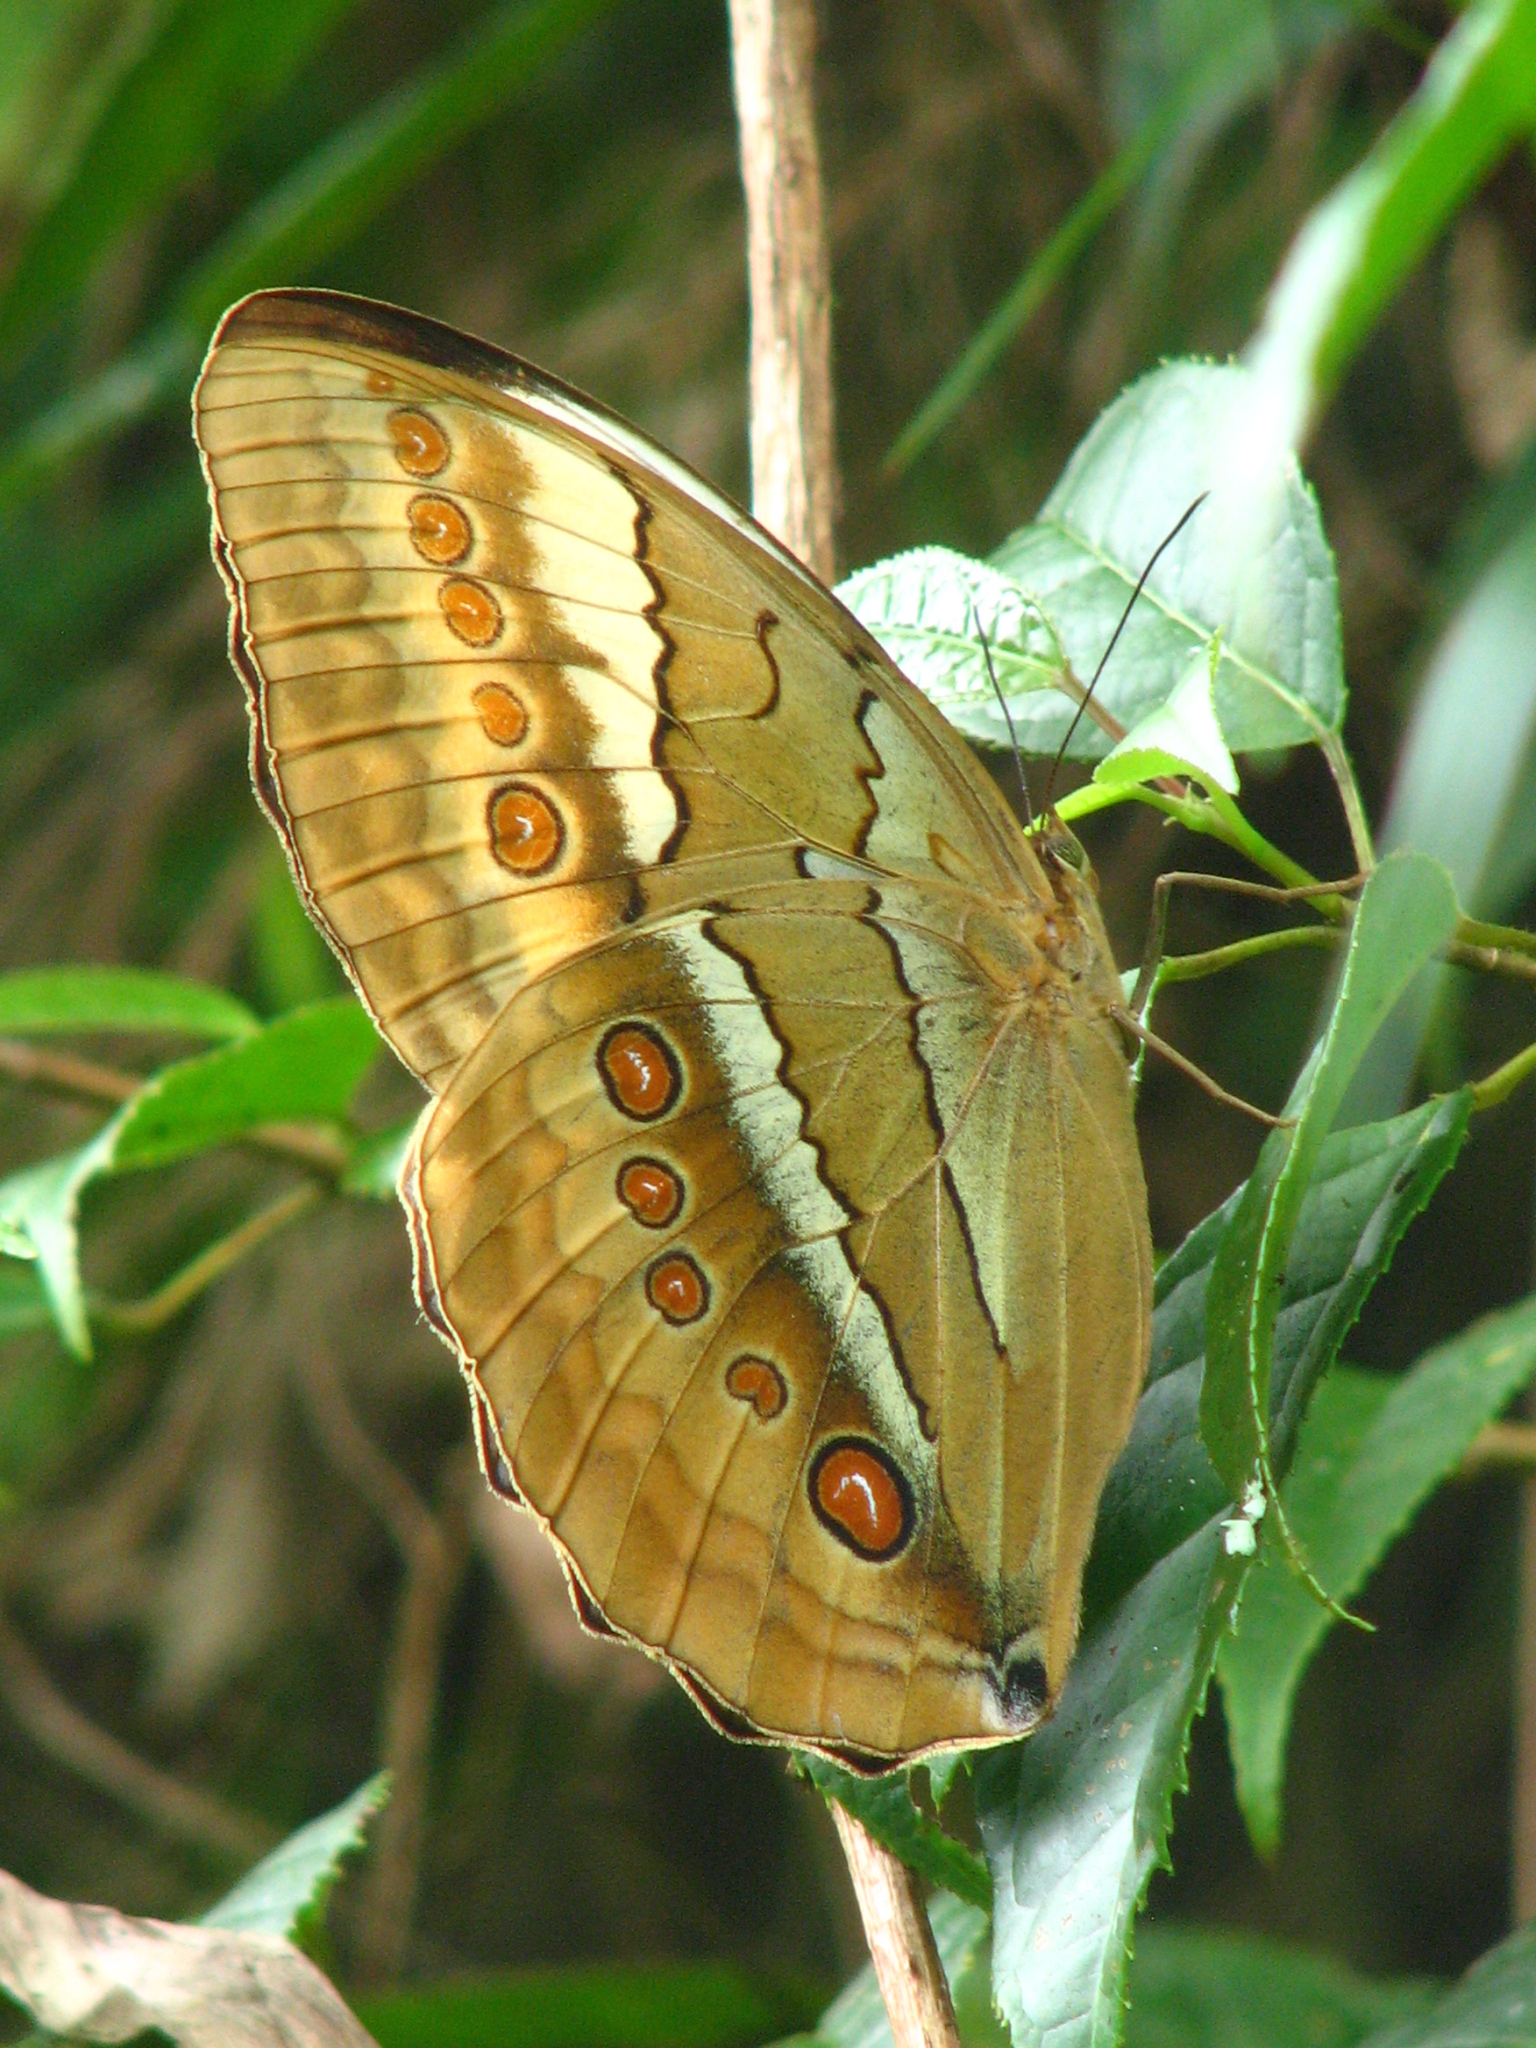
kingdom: Animalia
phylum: Arthropoda
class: Insecta
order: Lepidoptera
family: Nymphalidae
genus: Stichophthalma
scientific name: Stichophthalma camadeva
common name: Northern jungle queen
